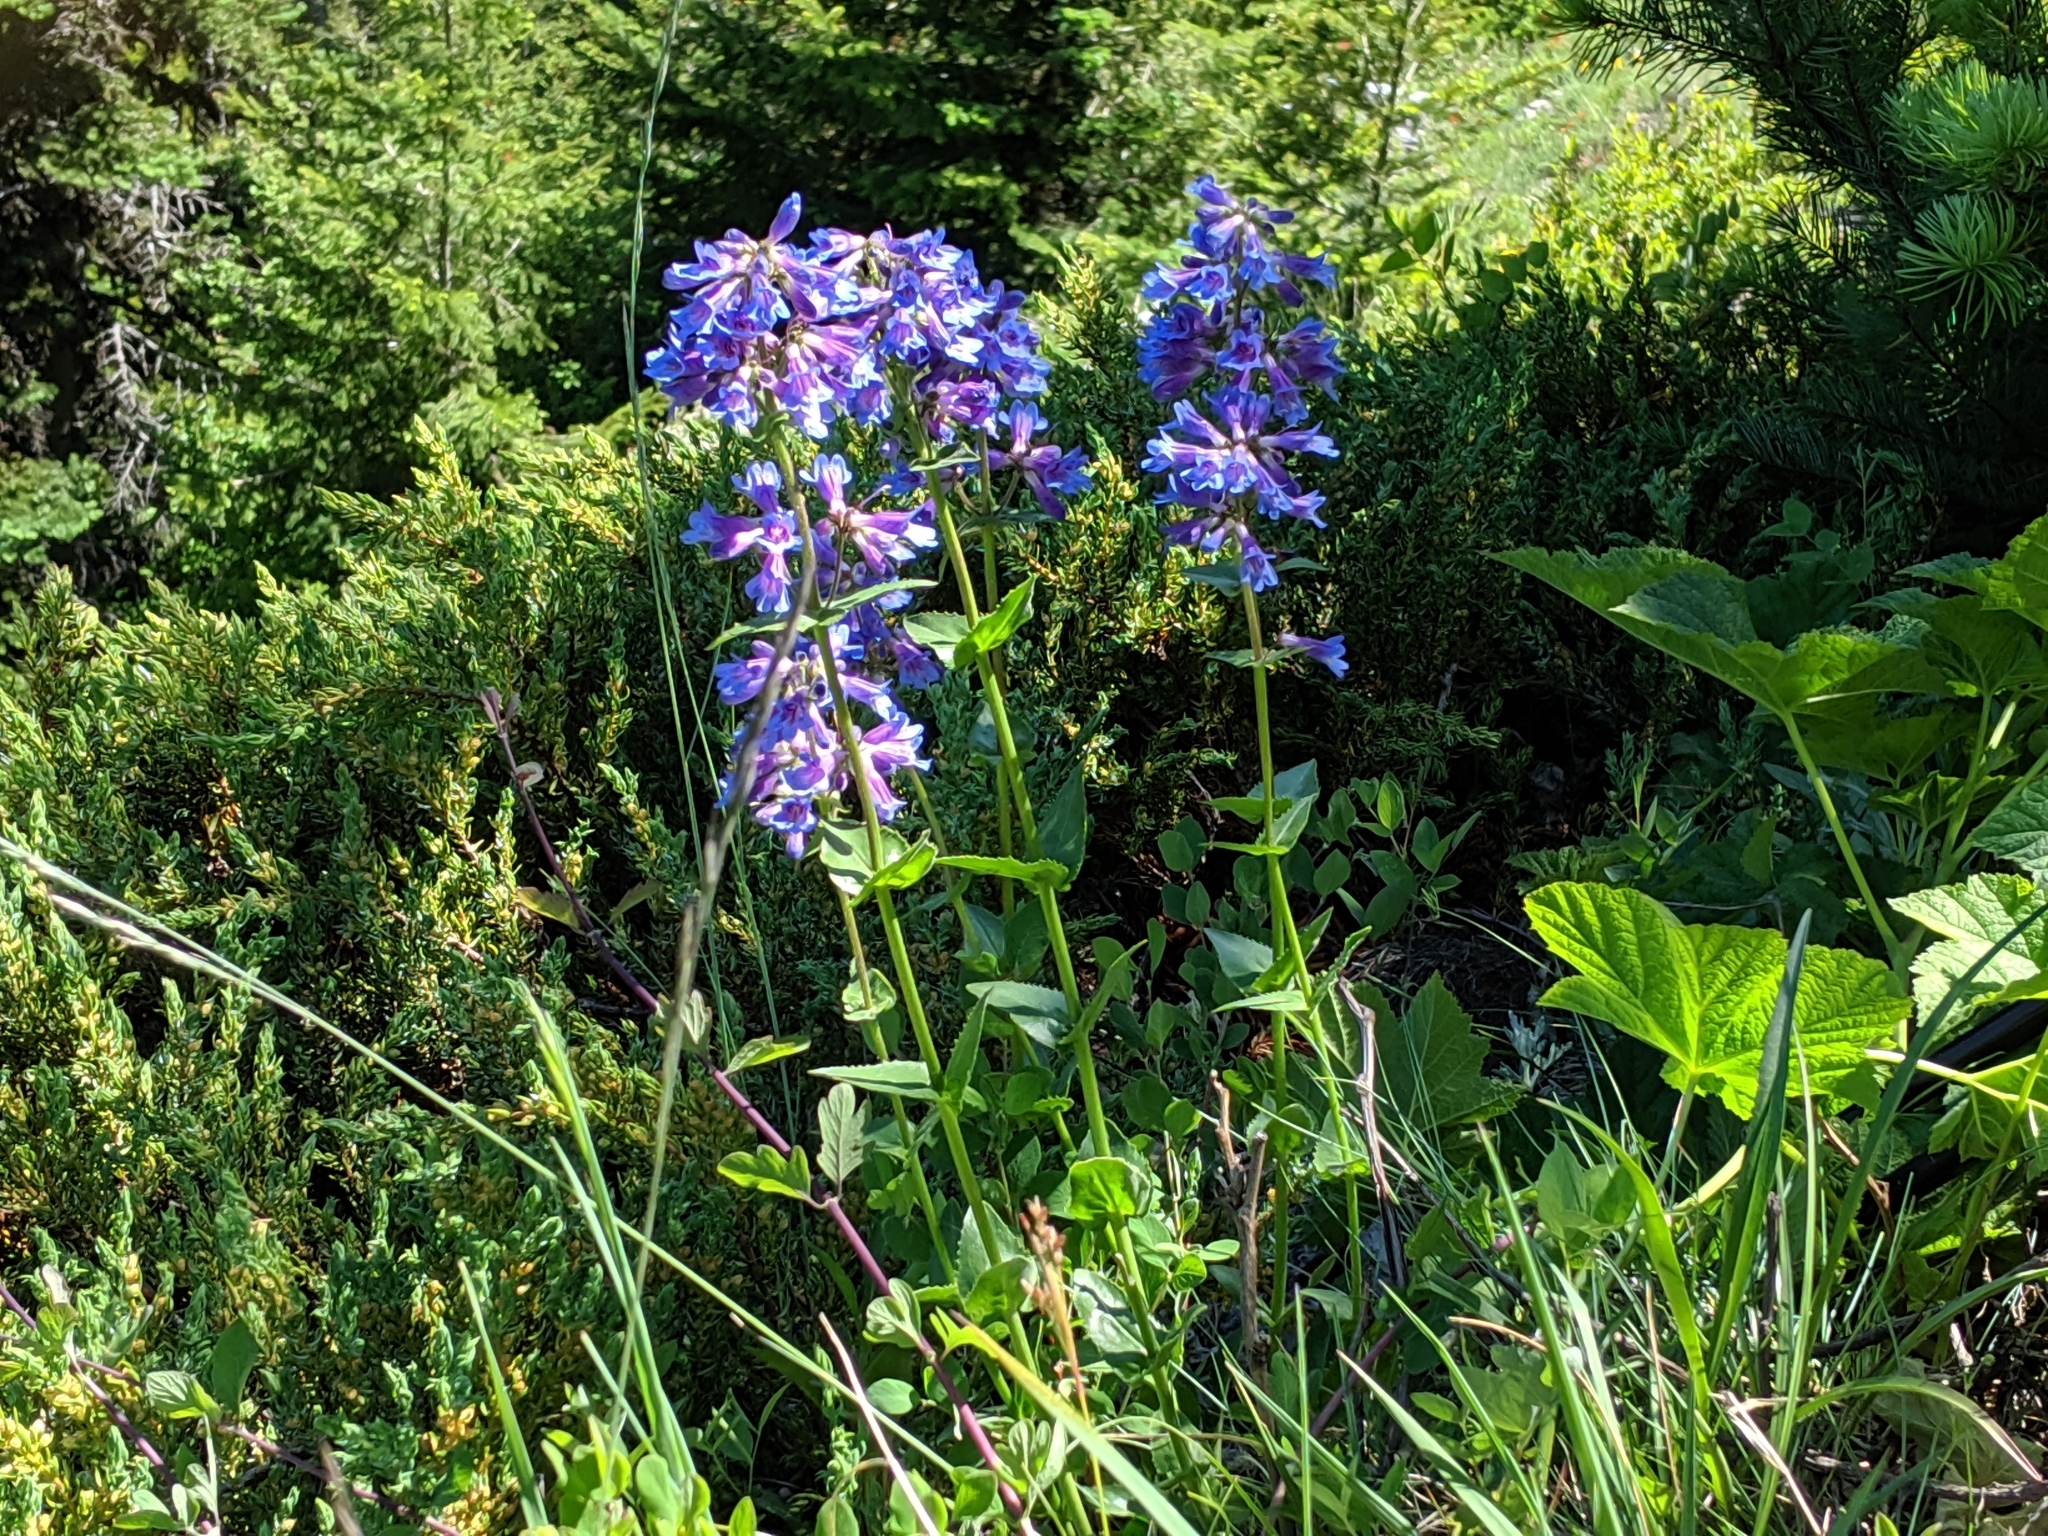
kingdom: Plantae
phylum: Tracheophyta
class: Magnoliopsida
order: Lamiales
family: Plantaginaceae
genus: Penstemon
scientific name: Penstemon procerus
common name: Small-flower penstemon
